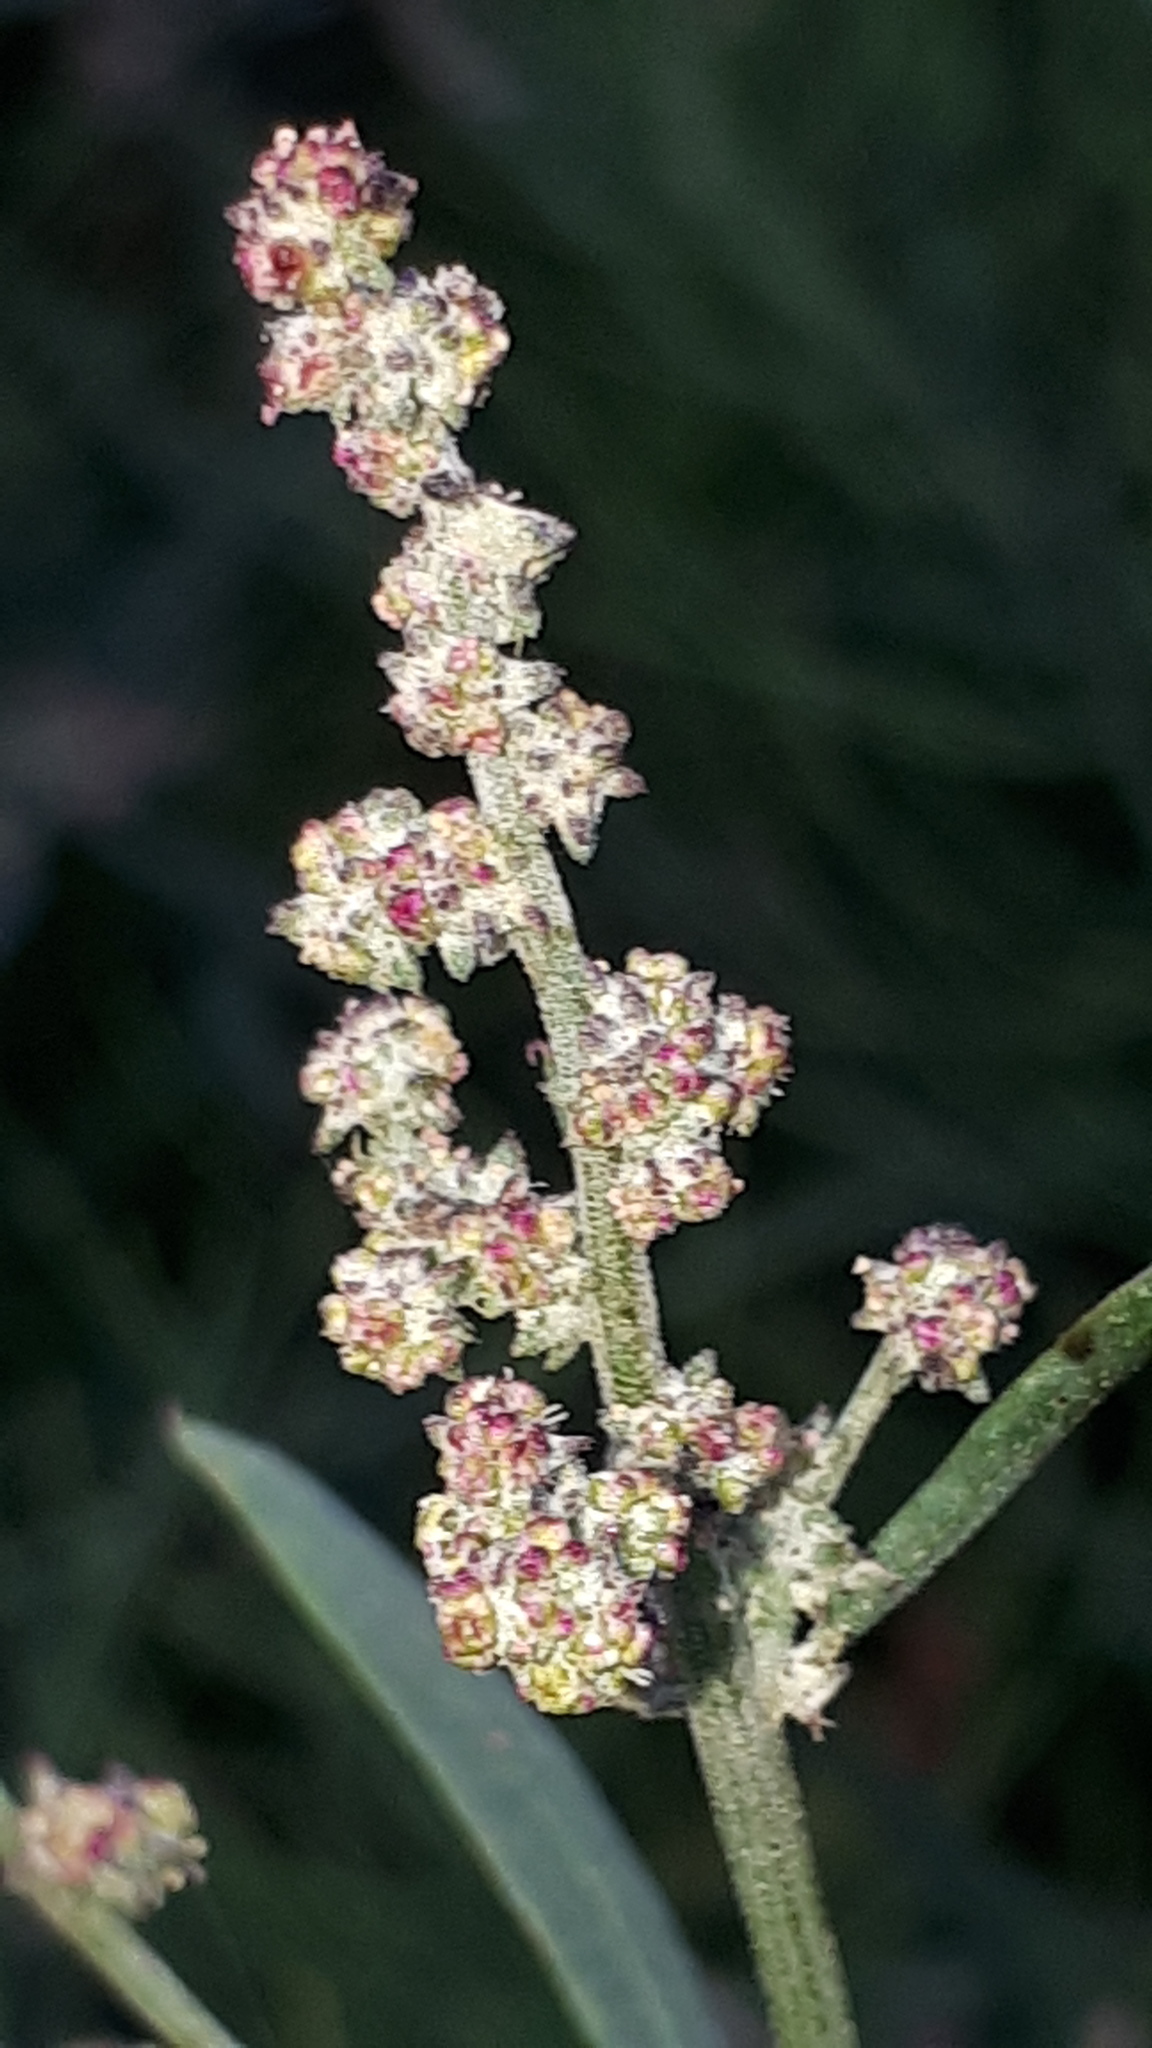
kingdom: Plantae
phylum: Tracheophyta
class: Magnoliopsida
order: Caryophyllales
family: Amaranthaceae
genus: Atriplex
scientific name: Atriplex patula
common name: Common orache
